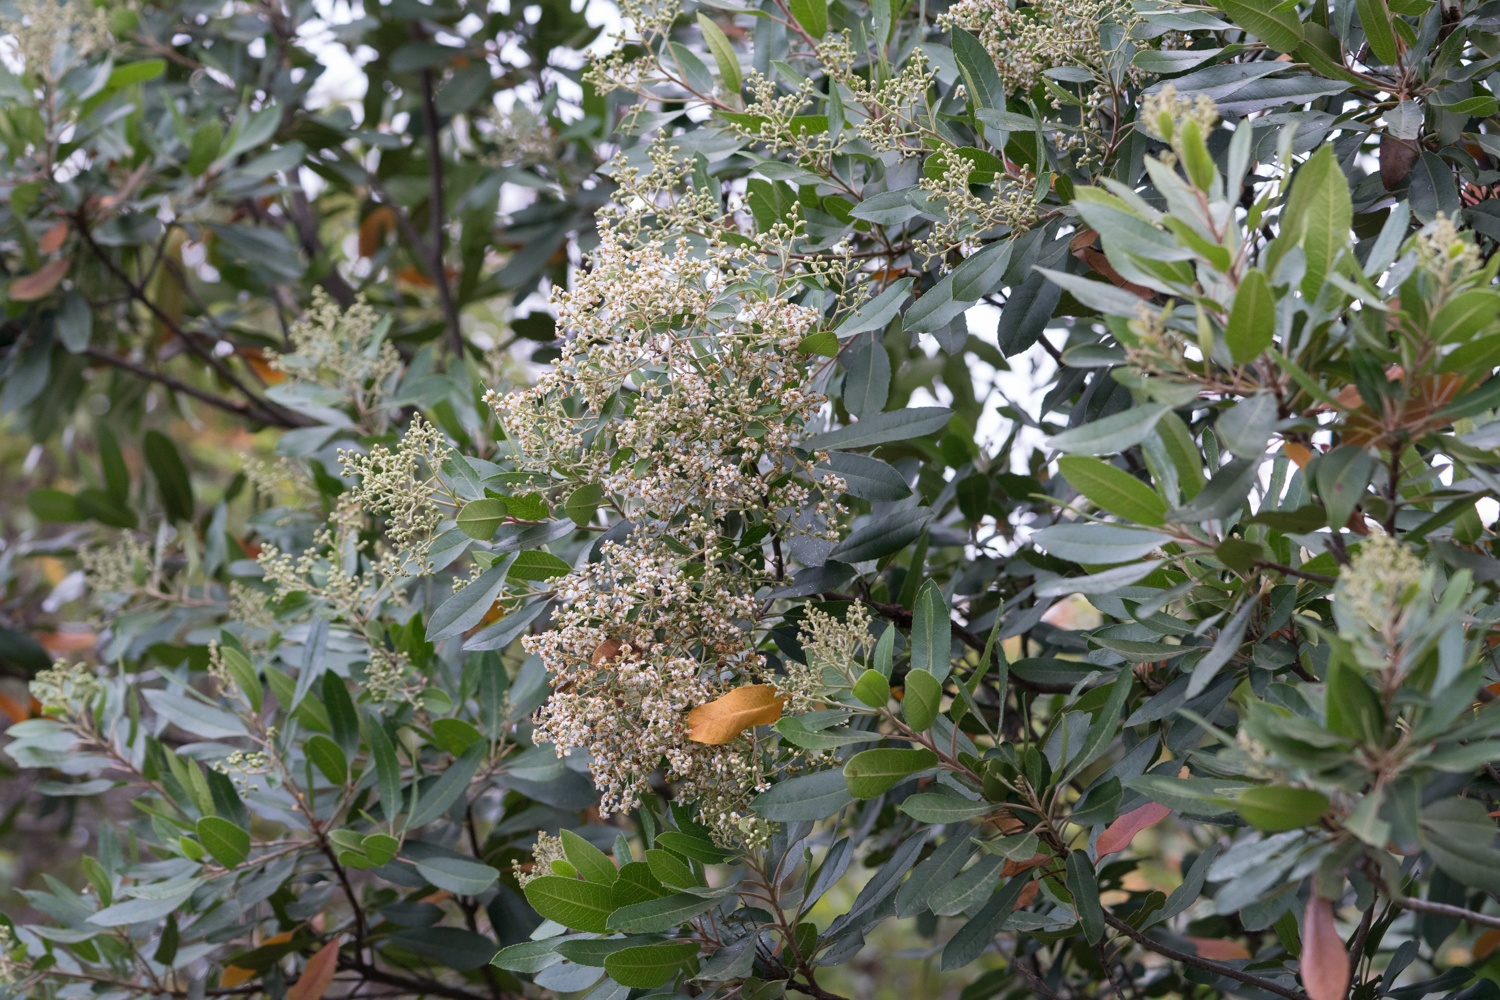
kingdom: Plantae
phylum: Tracheophyta
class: Magnoliopsida
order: Rosales
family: Rosaceae
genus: Heteromeles
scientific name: Heteromeles arbutifolia
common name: California-holly
